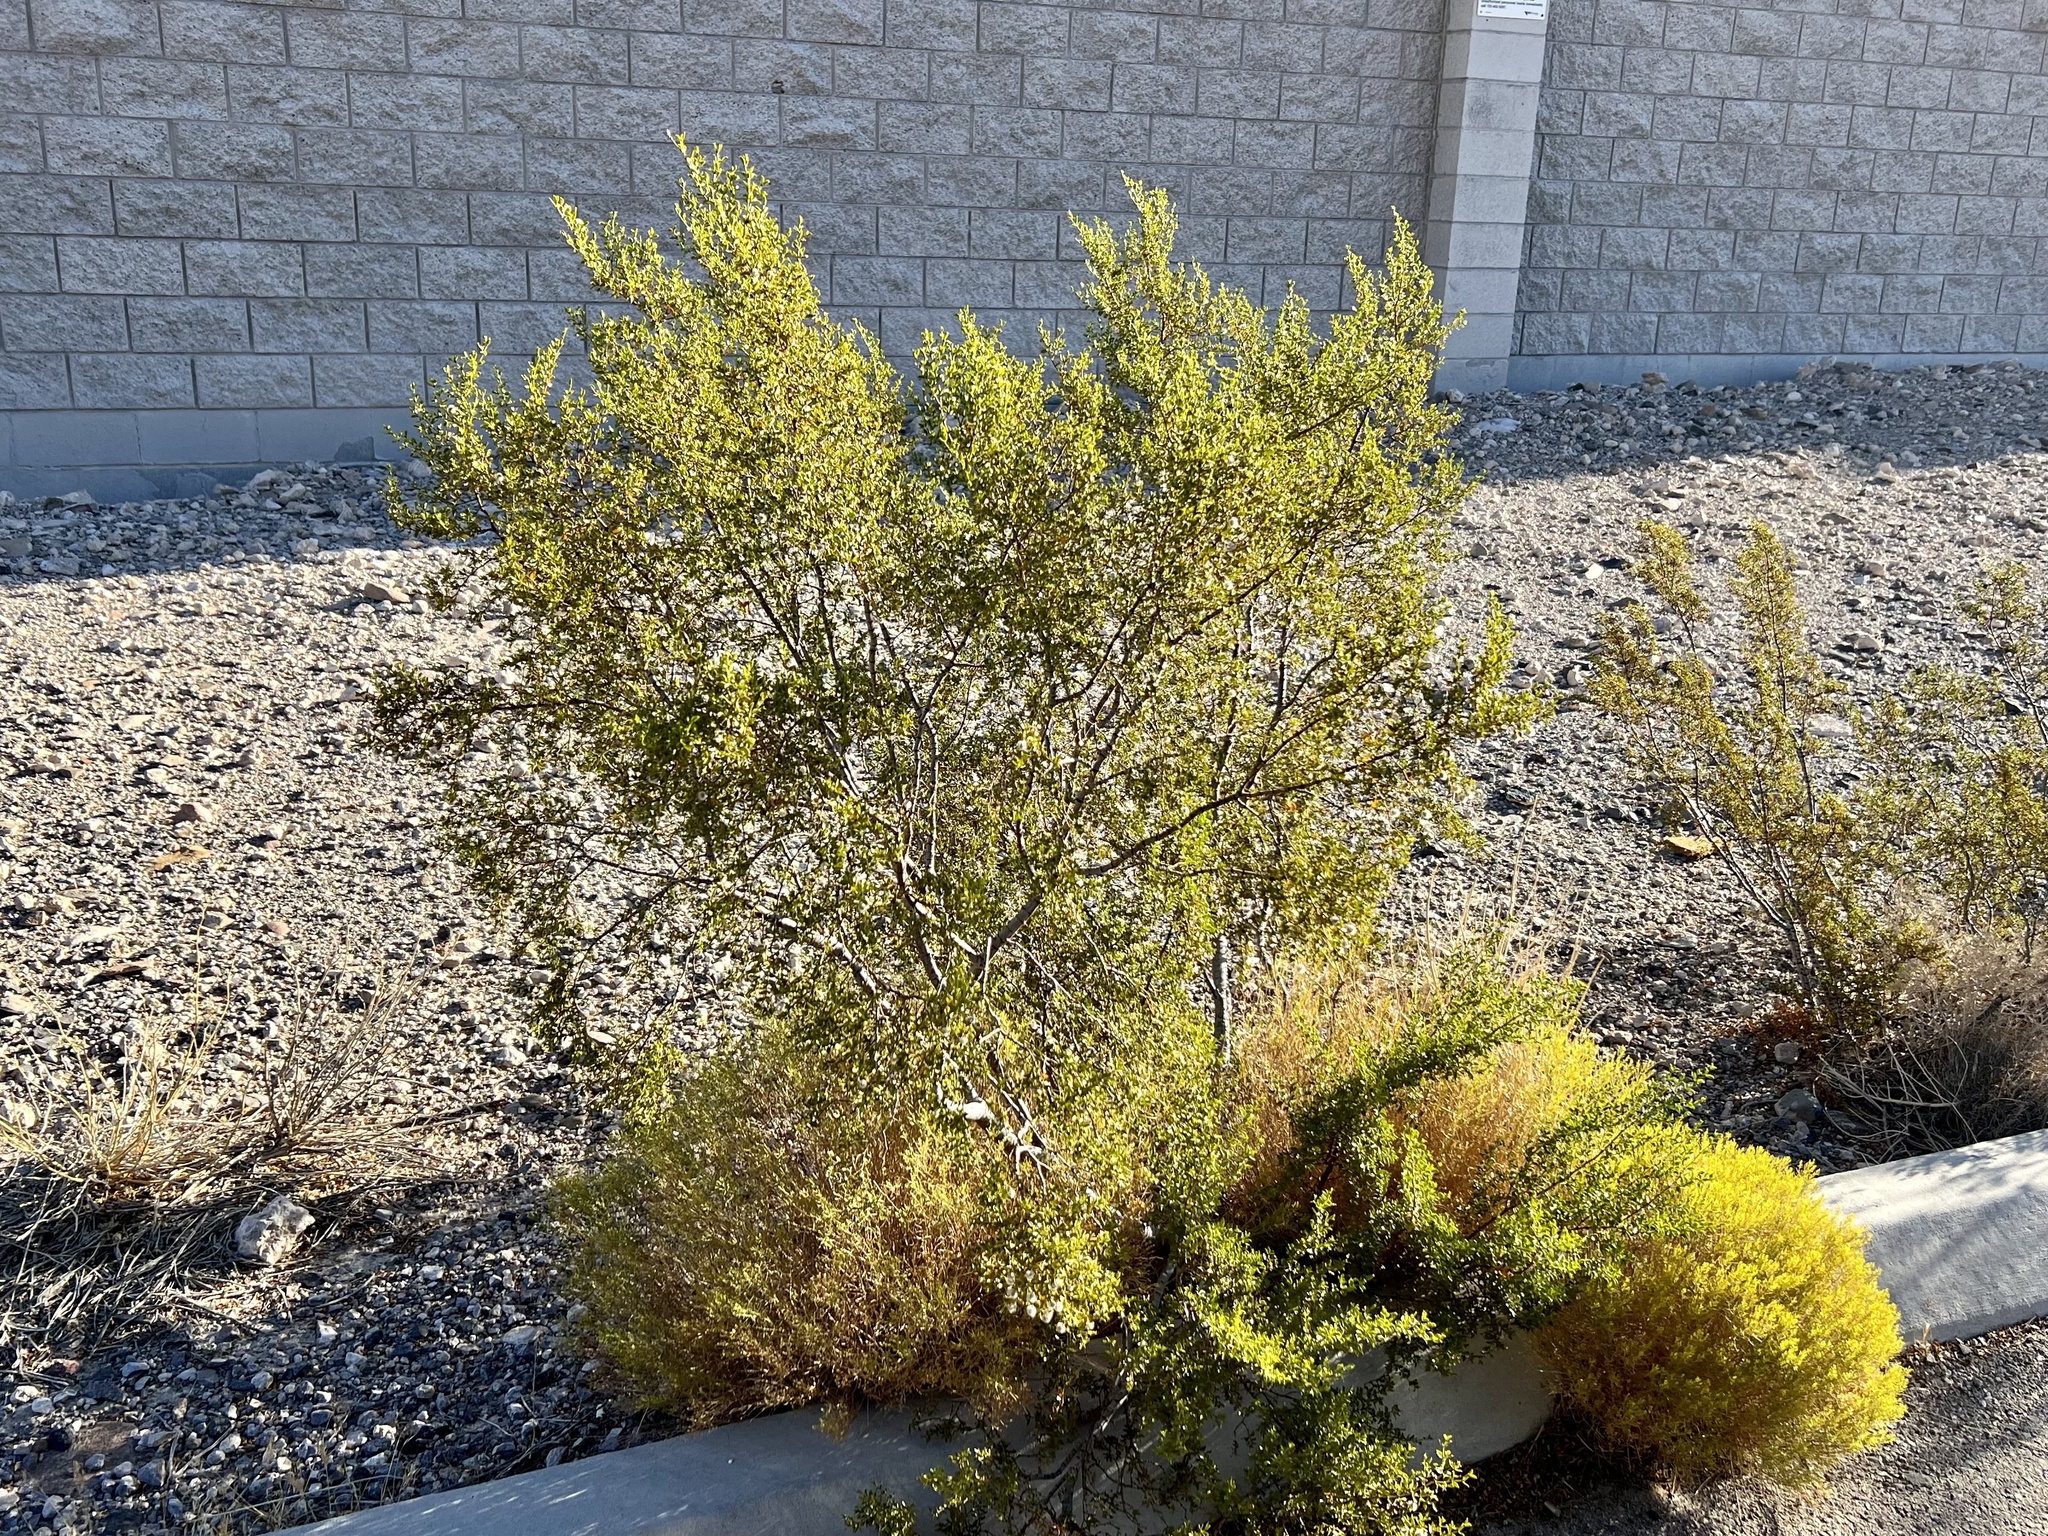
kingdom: Plantae
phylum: Tracheophyta
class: Magnoliopsida
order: Zygophyllales
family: Zygophyllaceae
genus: Larrea
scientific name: Larrea tridentata
